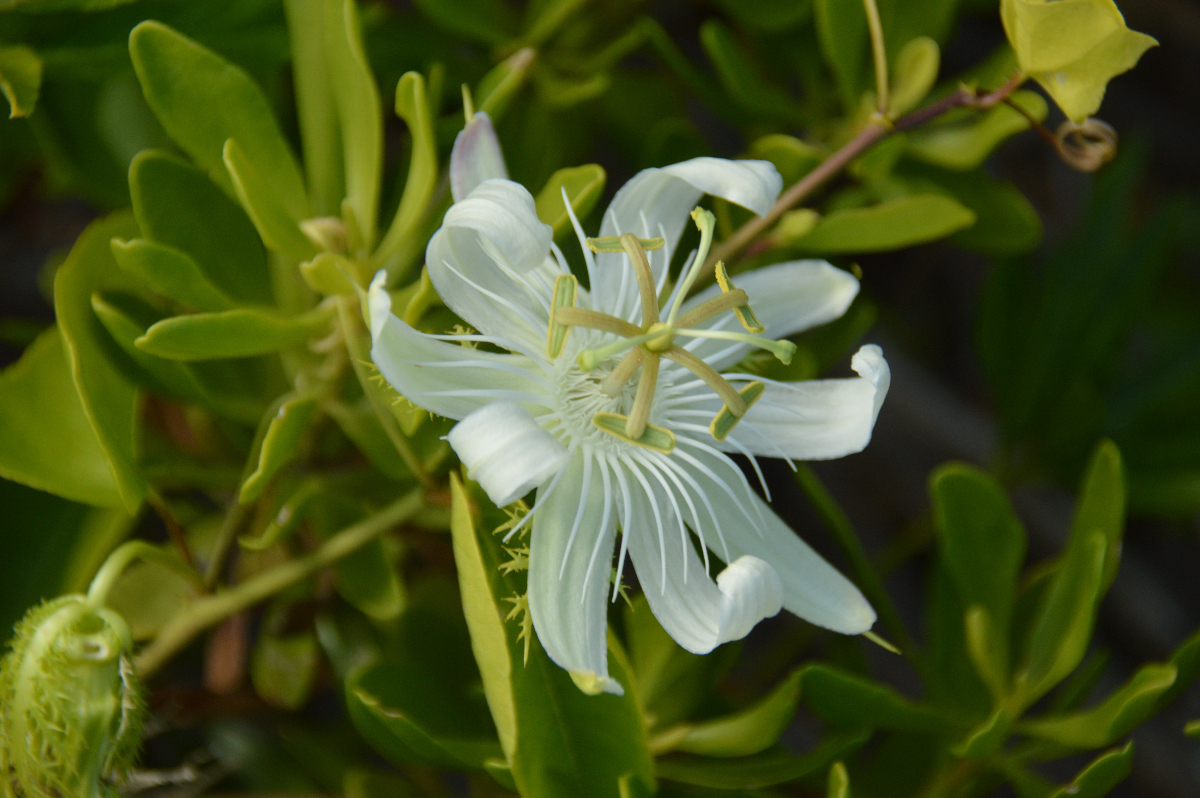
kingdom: Plantae
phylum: Tracheophyta
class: Magnoliopsida
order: Malpighiales
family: Passifloraceae
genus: Passiflora
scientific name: Passiflora pectinata
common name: White passionflower
